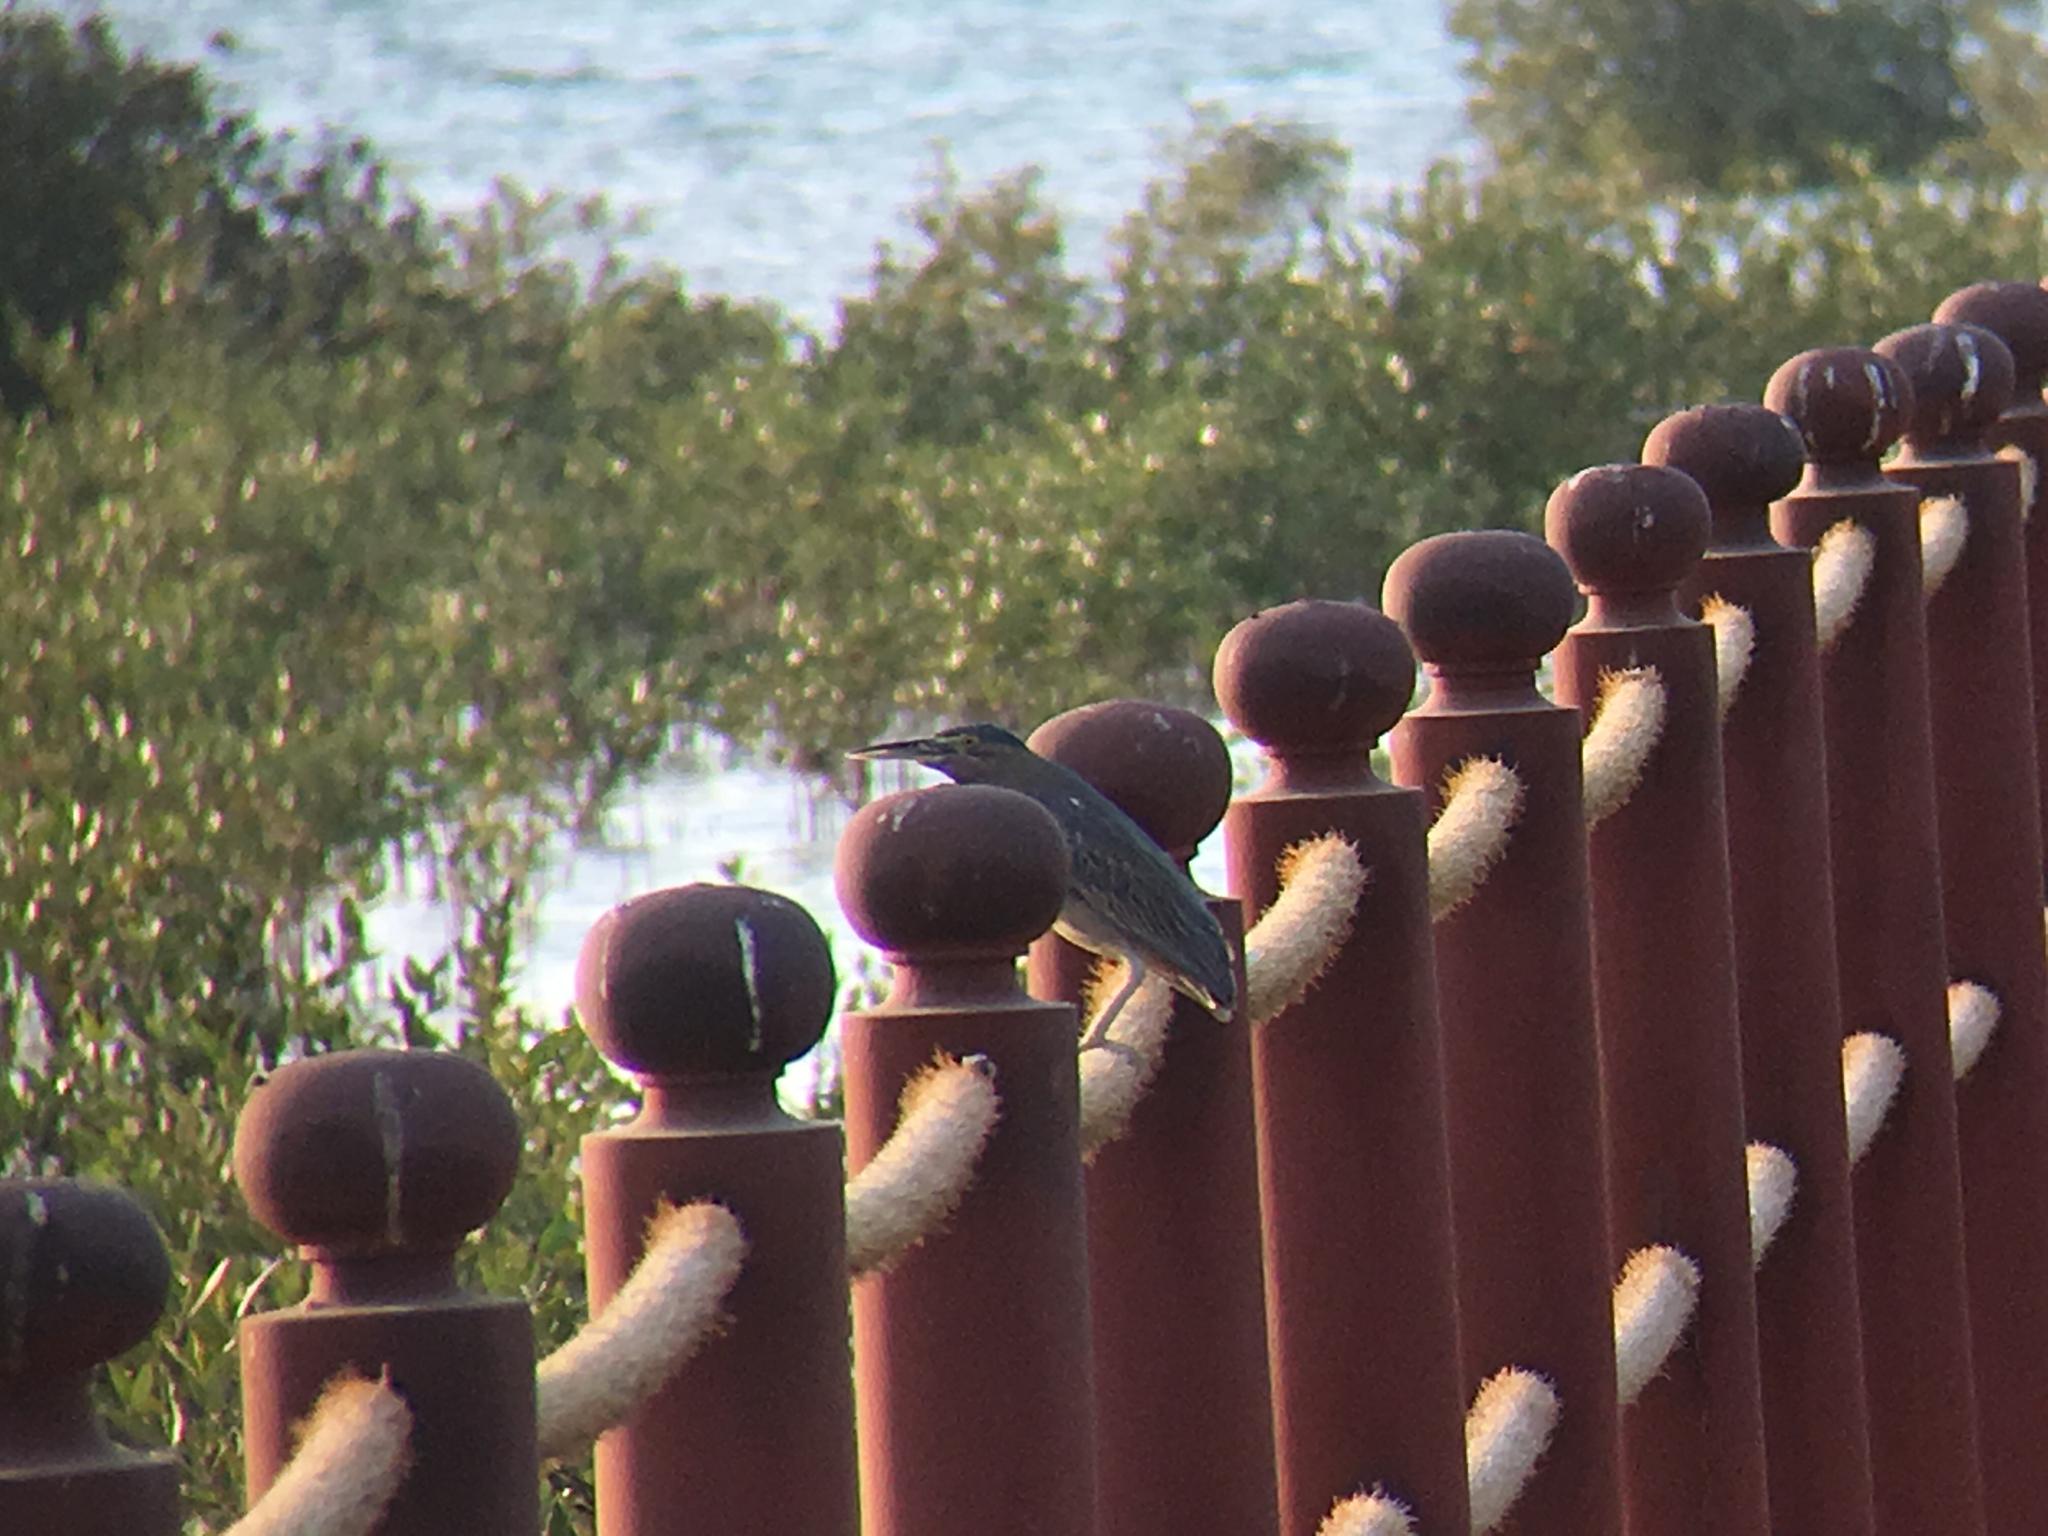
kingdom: Animalia
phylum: Chordata
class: Aves
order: Pelecaniformes
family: Ardeidae
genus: Butorides
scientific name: Butorides striata
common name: Striated heron
